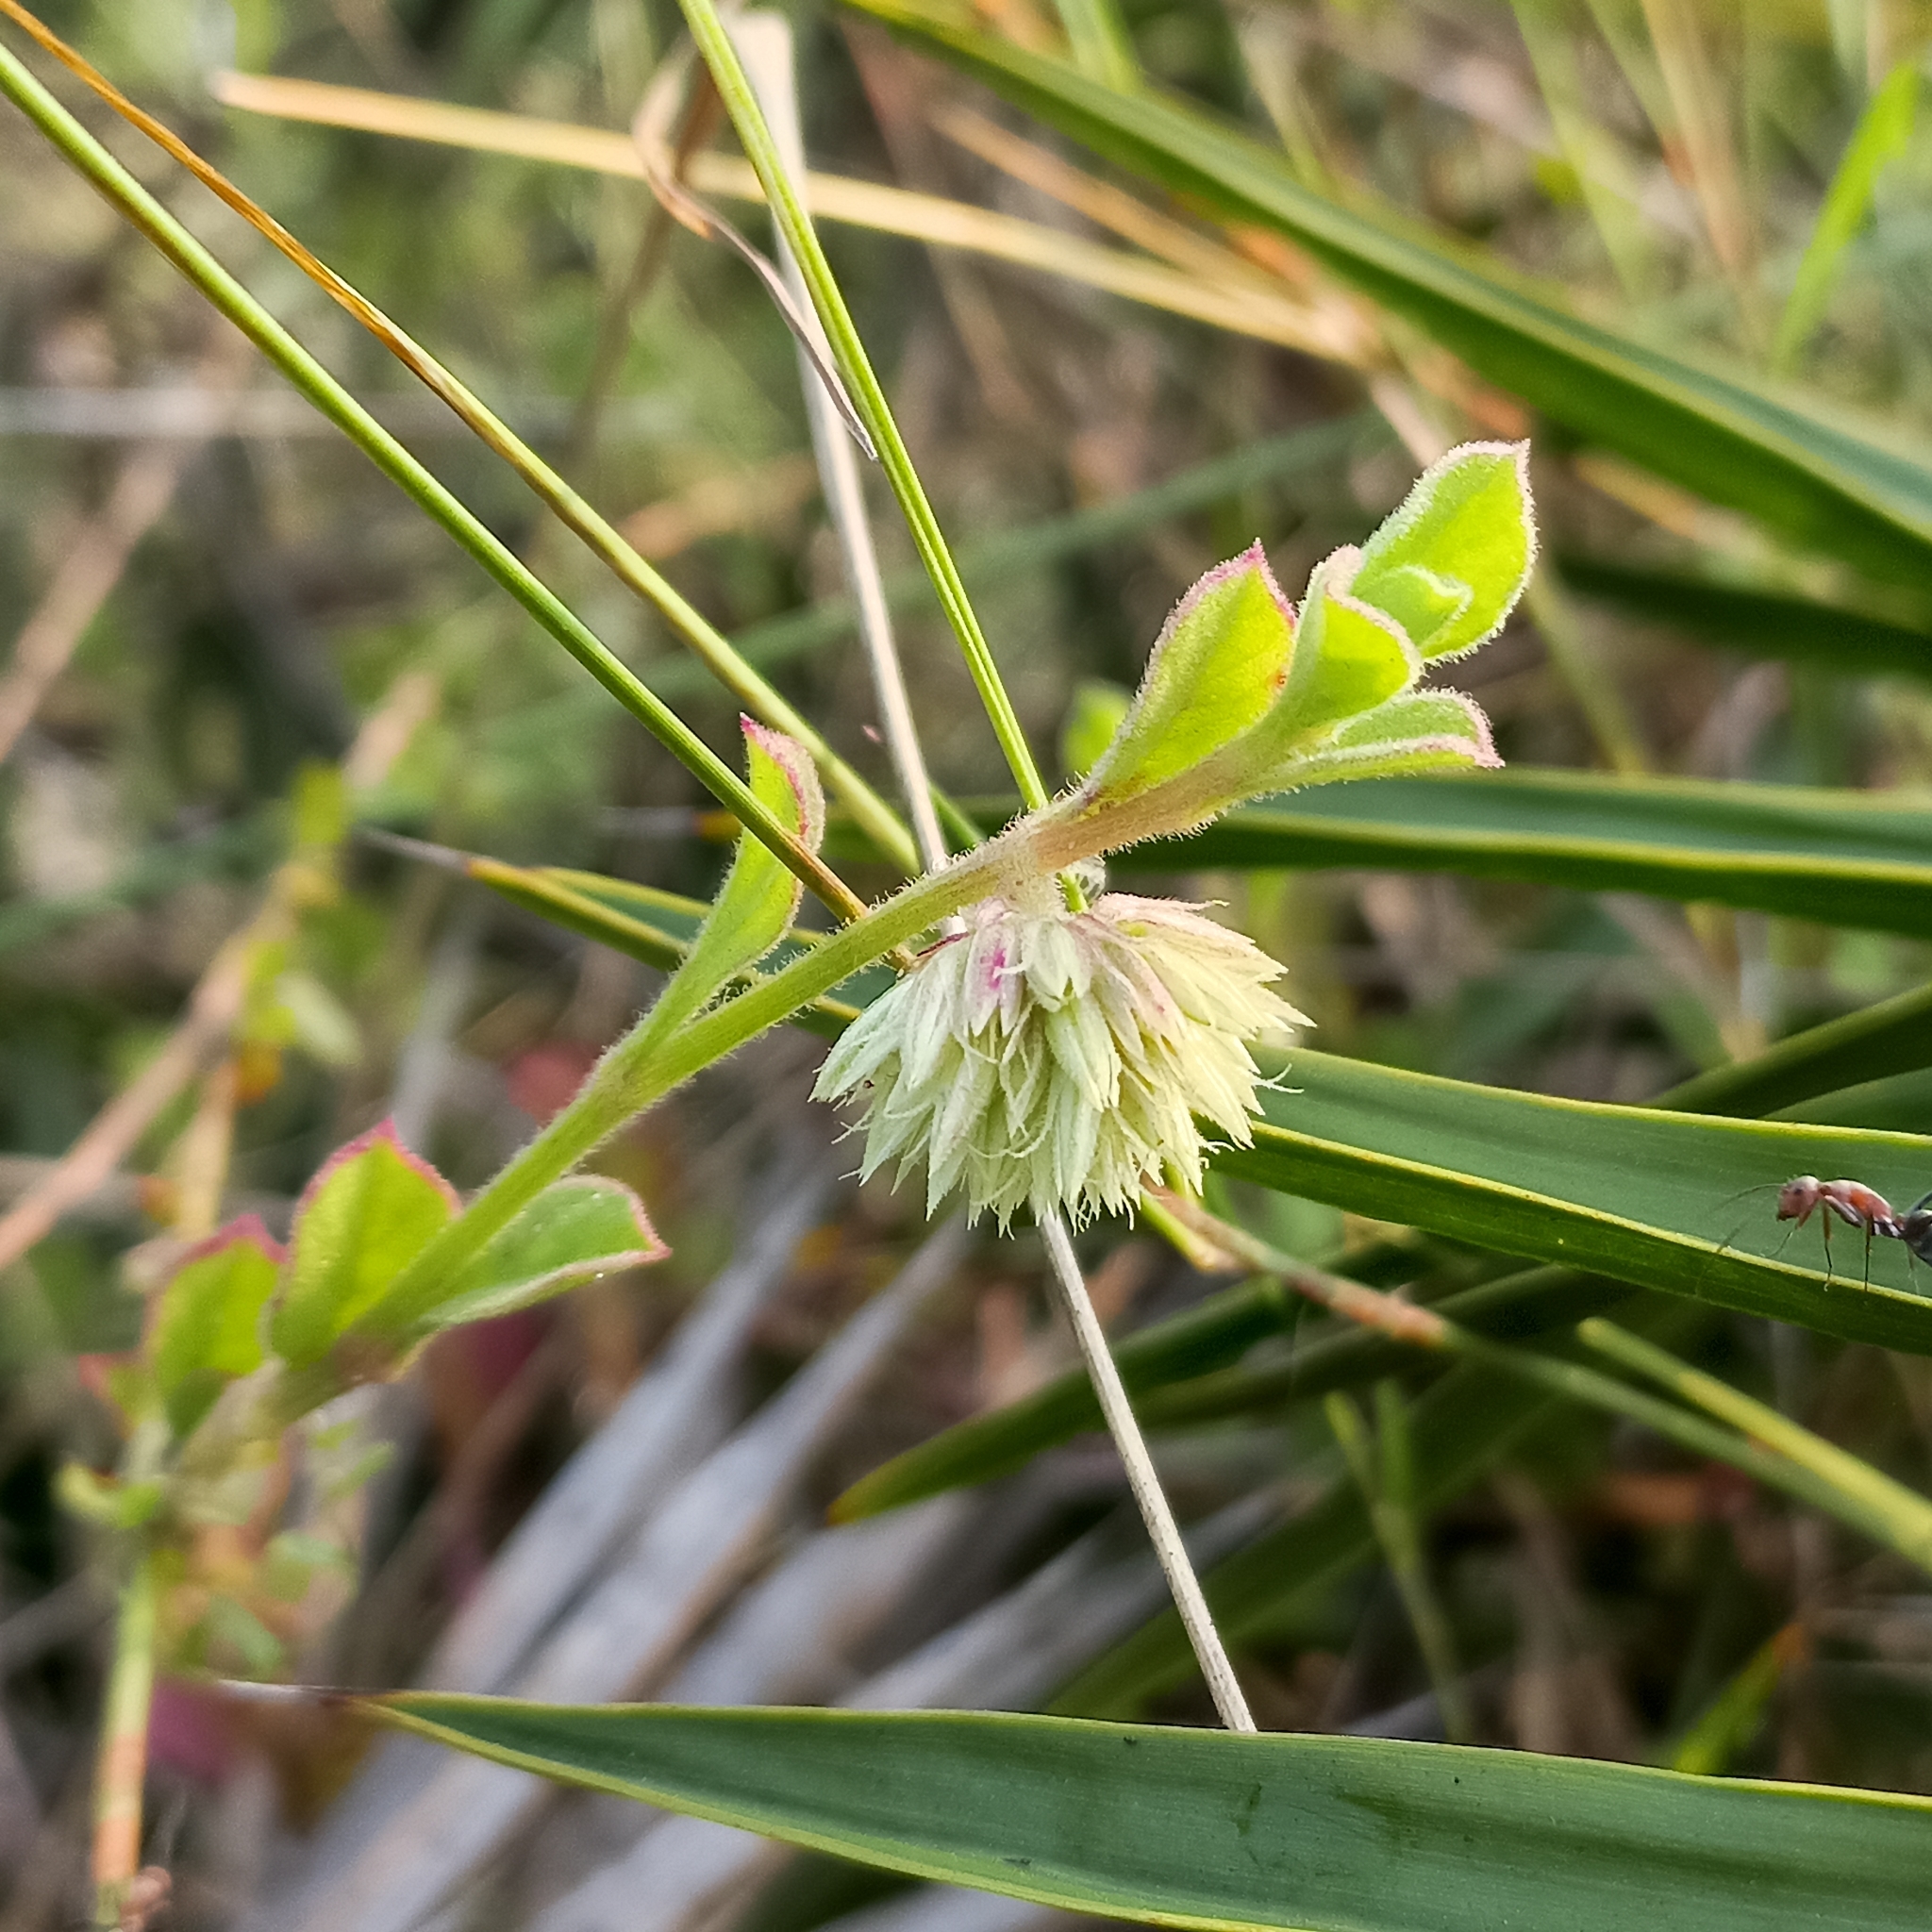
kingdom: Plantae
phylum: Tracheophyta
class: Magnoliopsida
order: Caryophyllales
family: Amaranthaceae
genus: Allmania
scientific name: Allmania nodiflora
